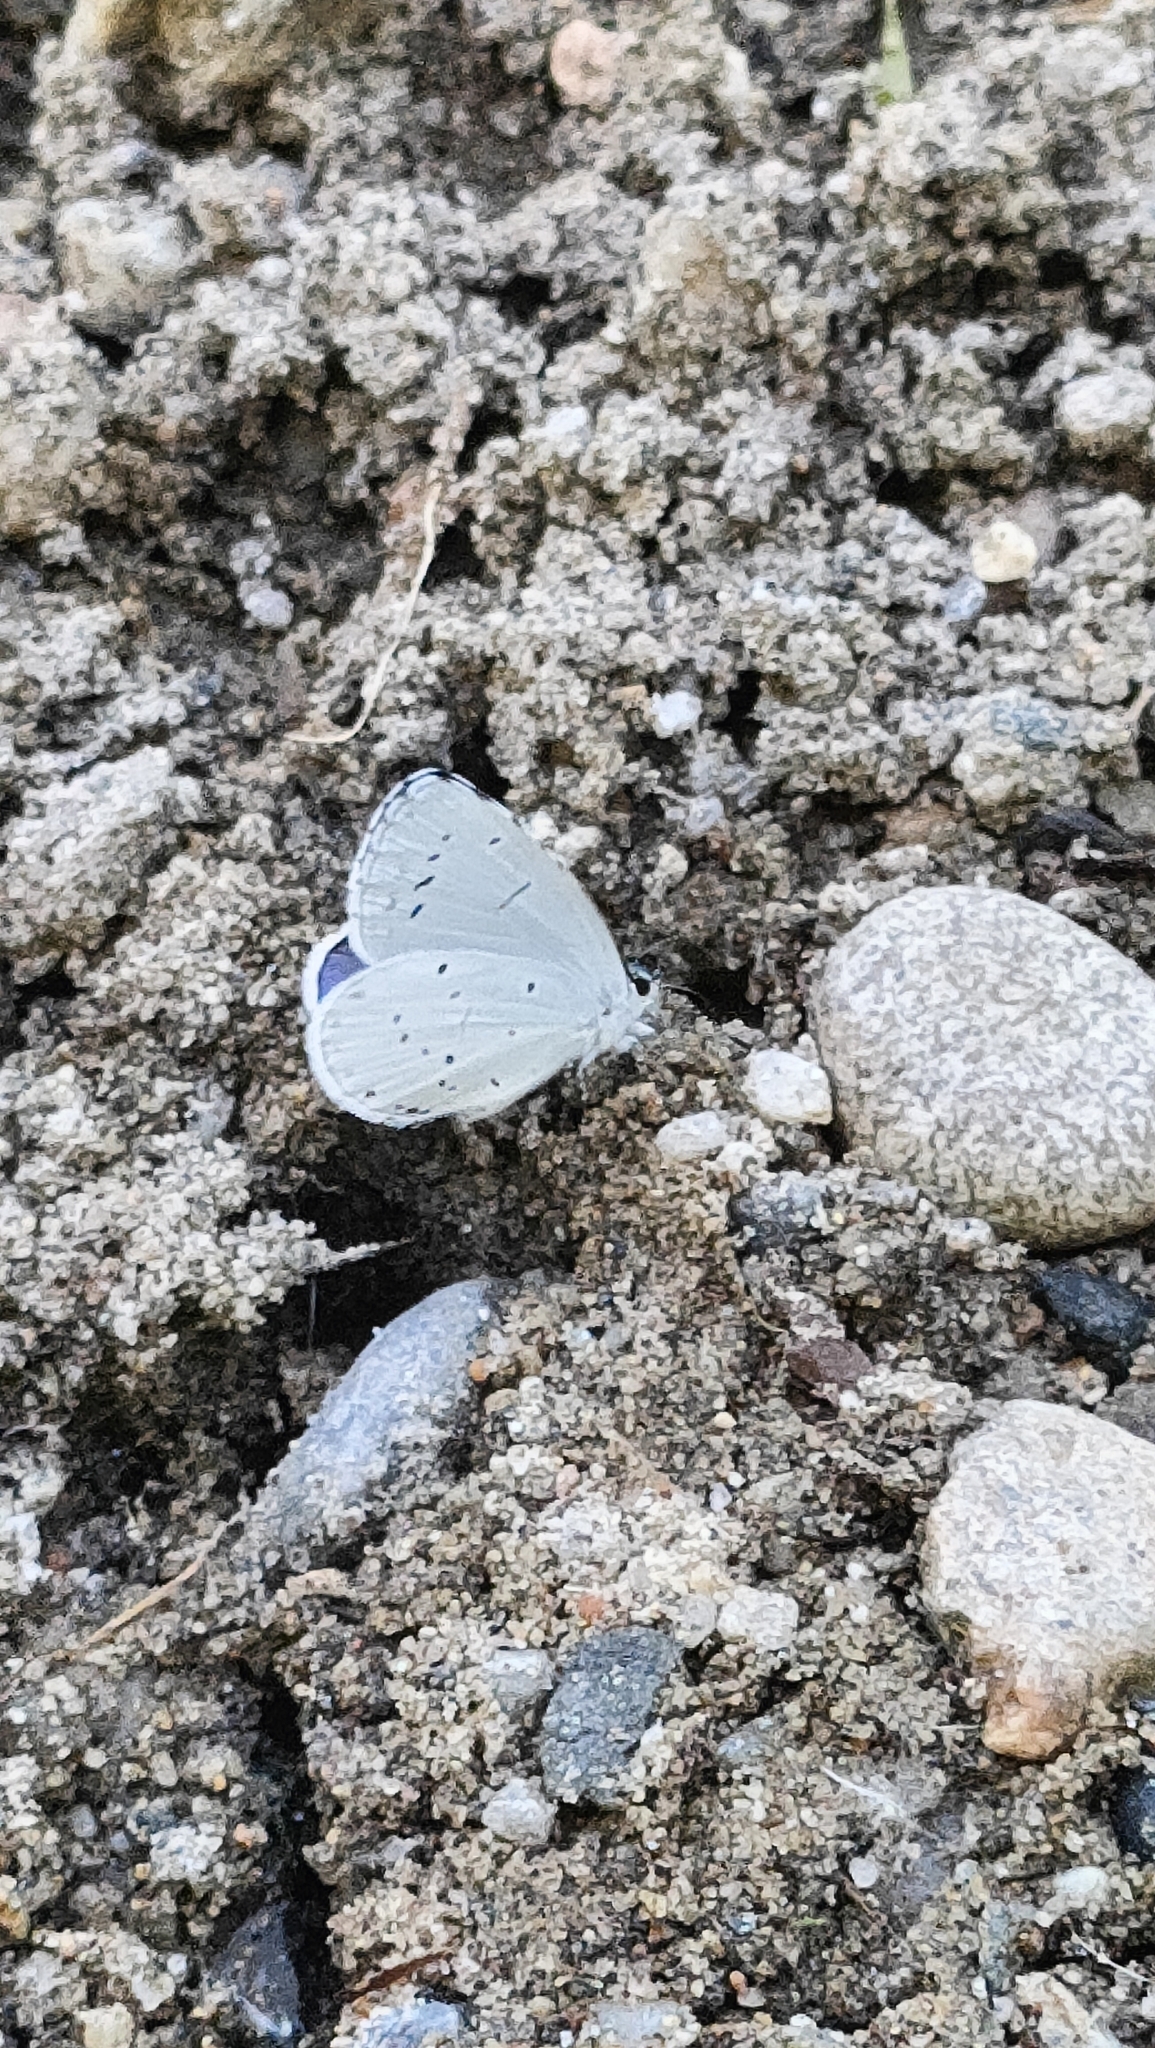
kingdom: Animalia
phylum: Arthropoda
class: Insecta
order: Lepidoptera
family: Lycaenidae
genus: Celastrina
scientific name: Celastrina argiolus
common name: Holly blue
